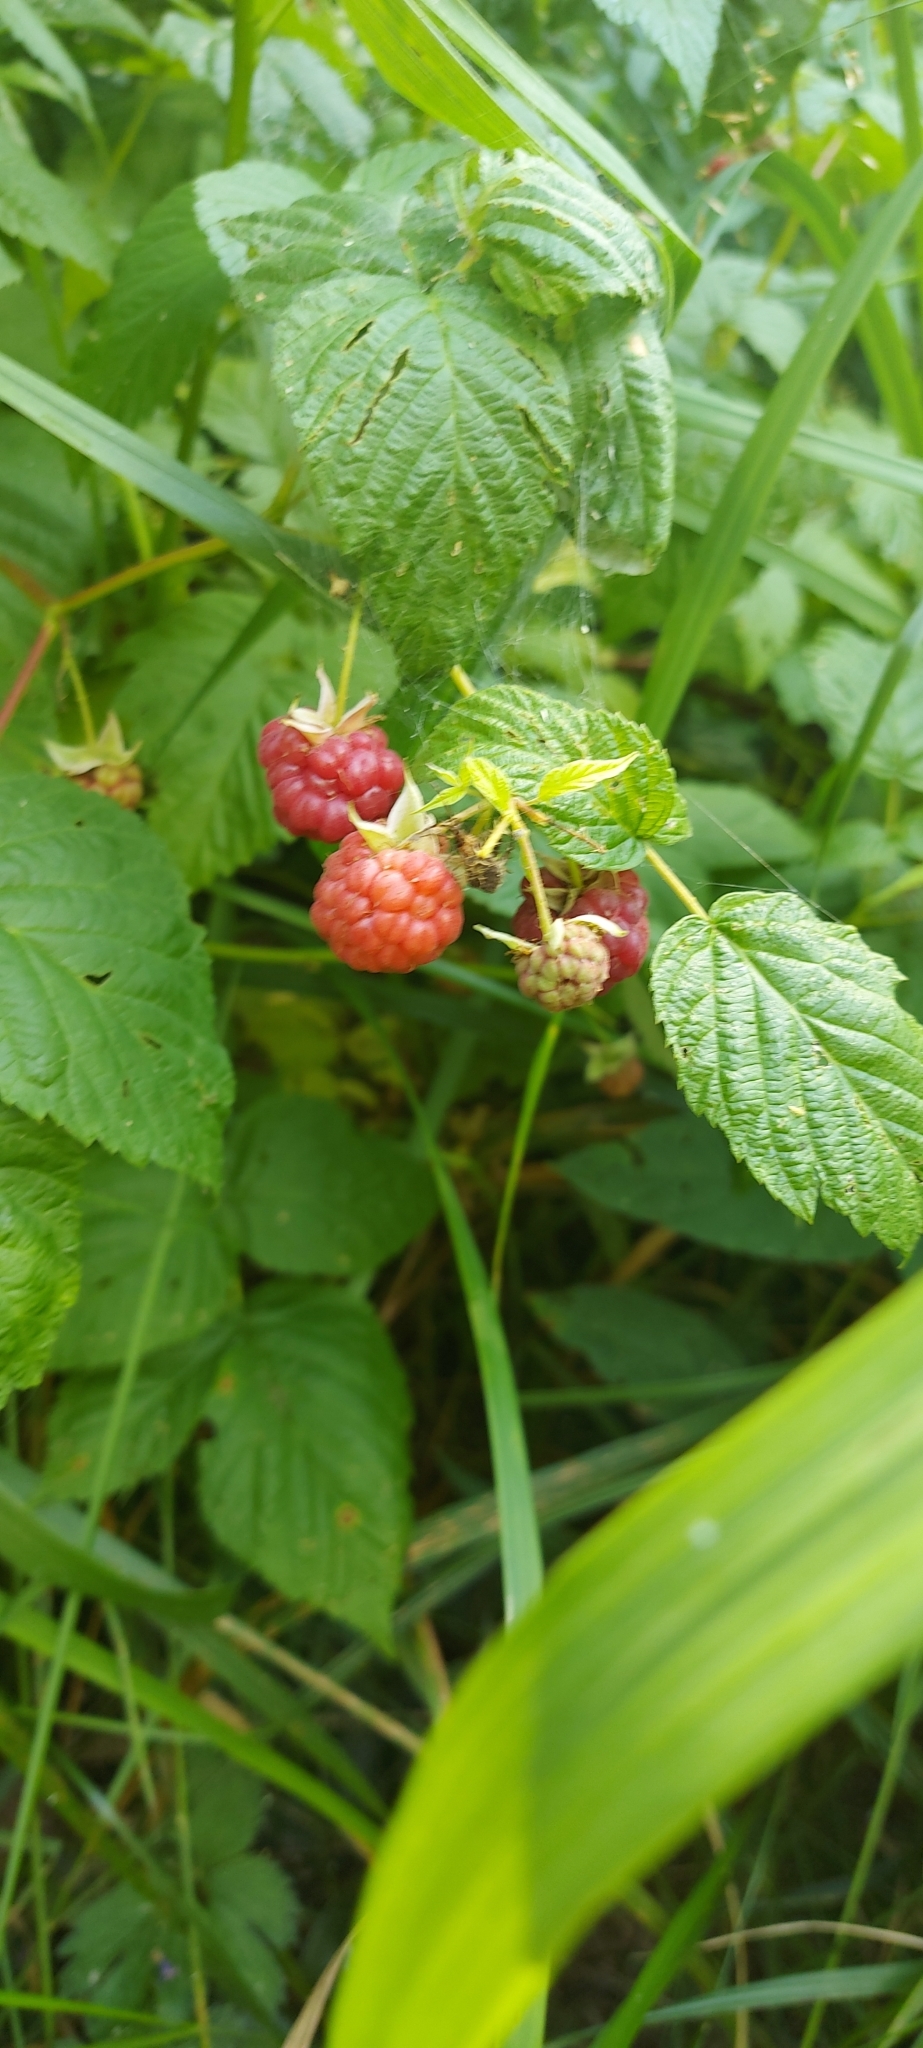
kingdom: Plantae
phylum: Tracheophyta
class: Magnoliopsida
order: Rosales
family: Rosaceae
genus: Rubus
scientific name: Rubus idaeus
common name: Raspberry
